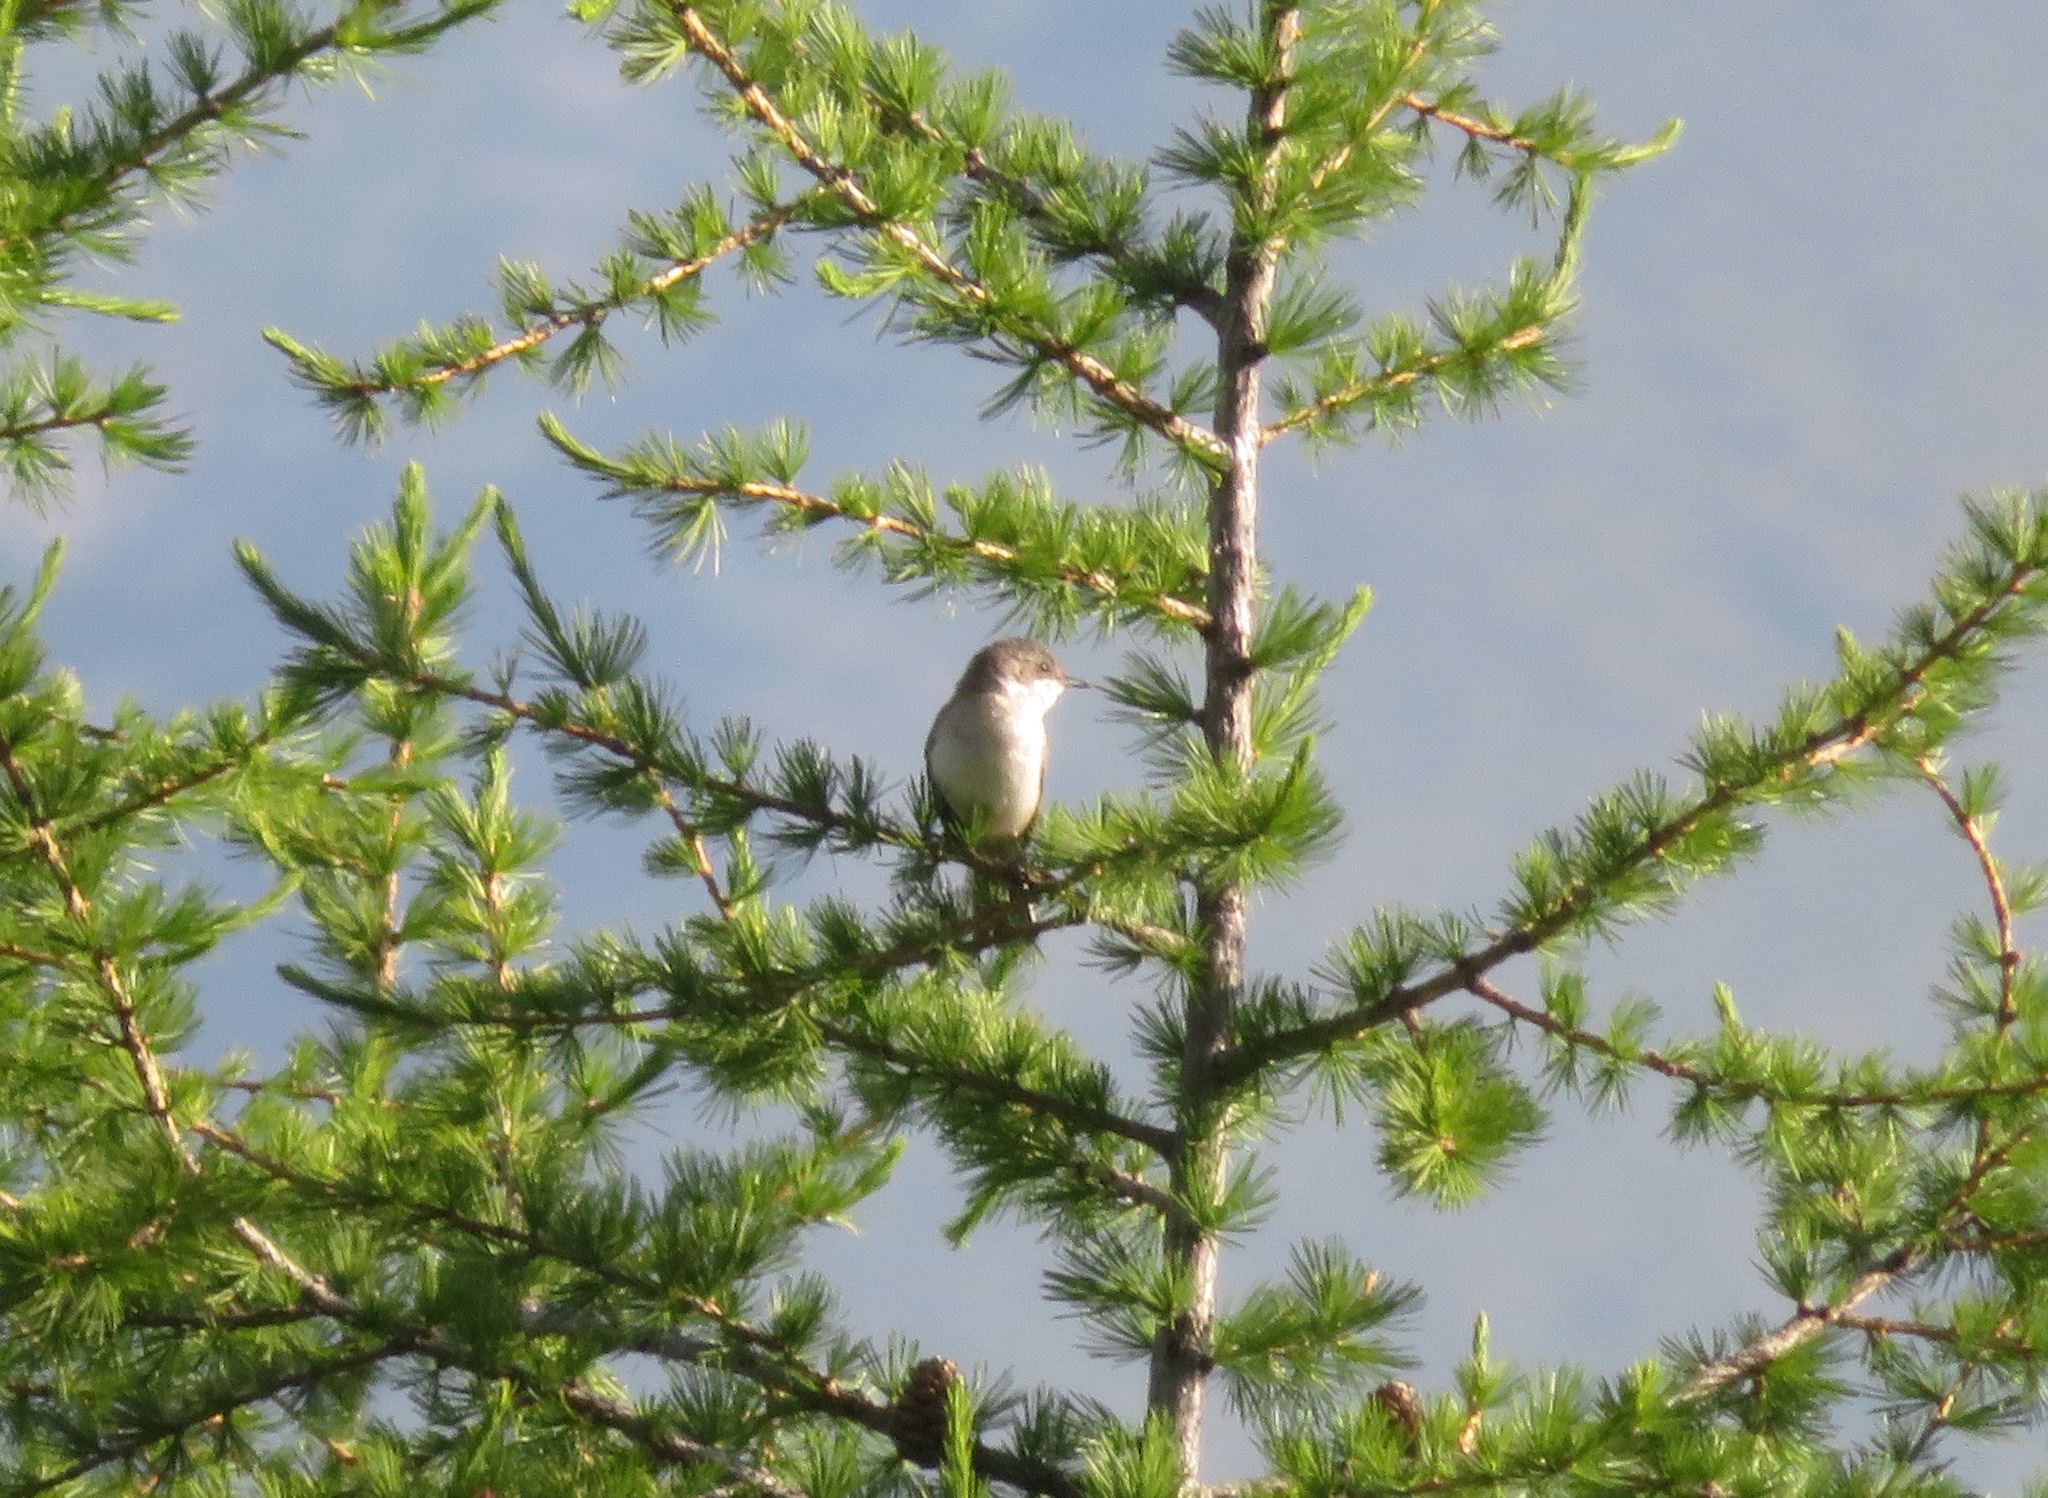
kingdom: Animalia
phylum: Chordata
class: Aves
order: Passeriformes
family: Sylviidae
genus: Sylvia
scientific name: Sylvia curruca
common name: Lesser whitethroat
